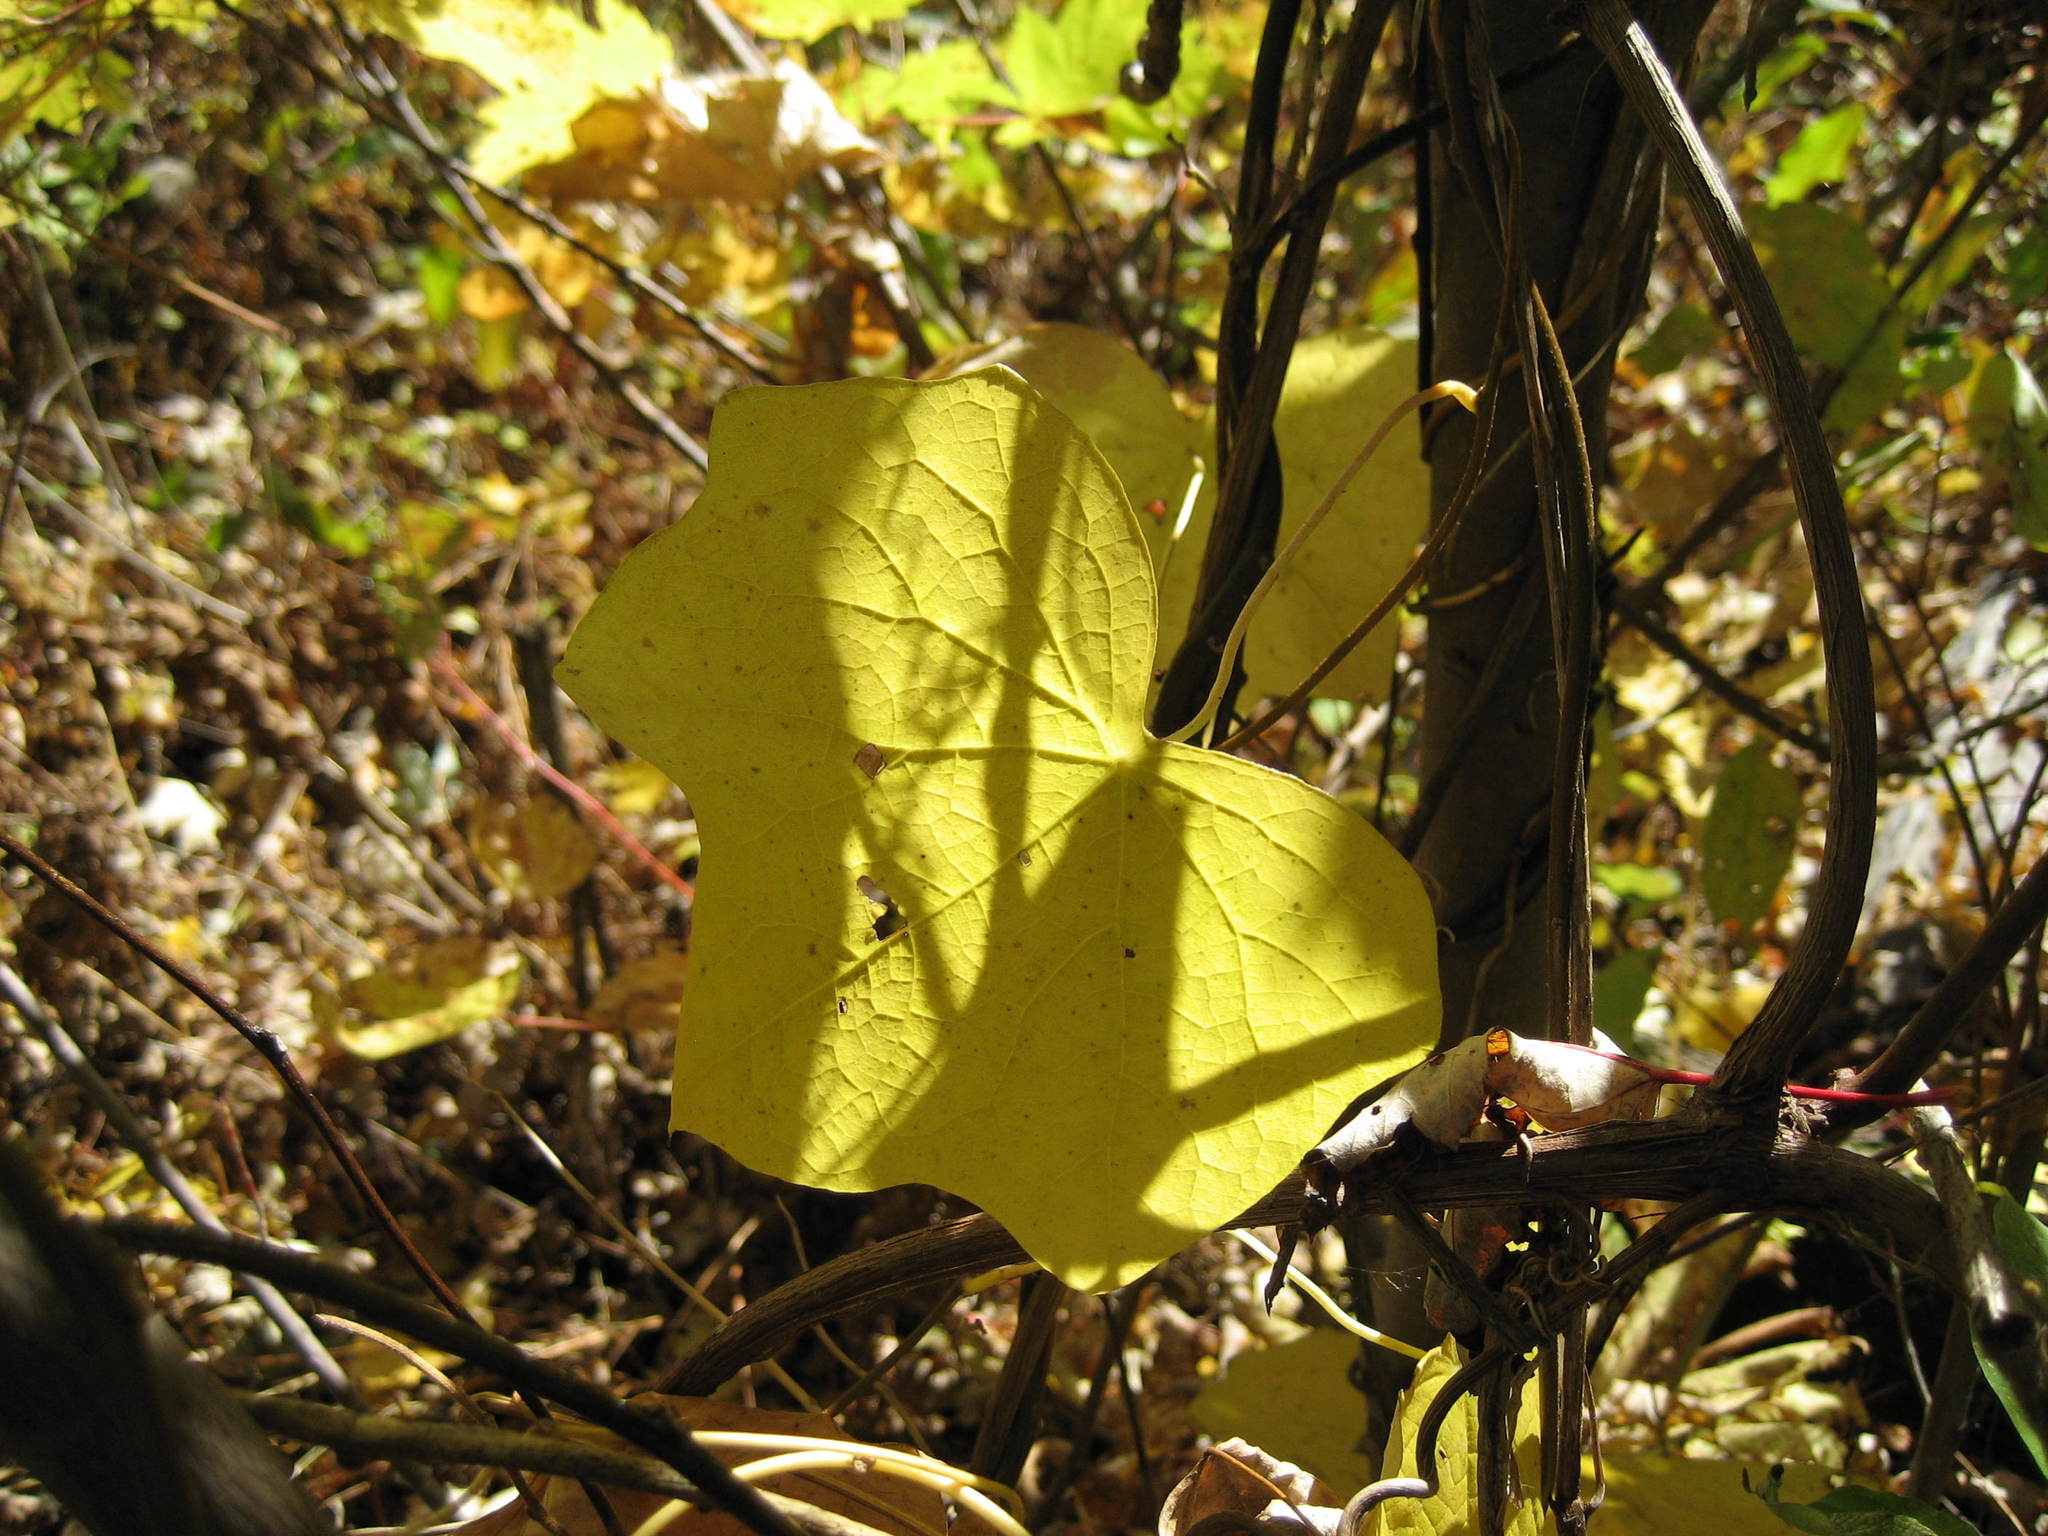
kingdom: Plantae
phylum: Tracheophyta
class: Magnoliopsida
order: Ranunculales
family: Menispermaceae
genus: Menispermum
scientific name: Menispermum canadense
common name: Moonseed
